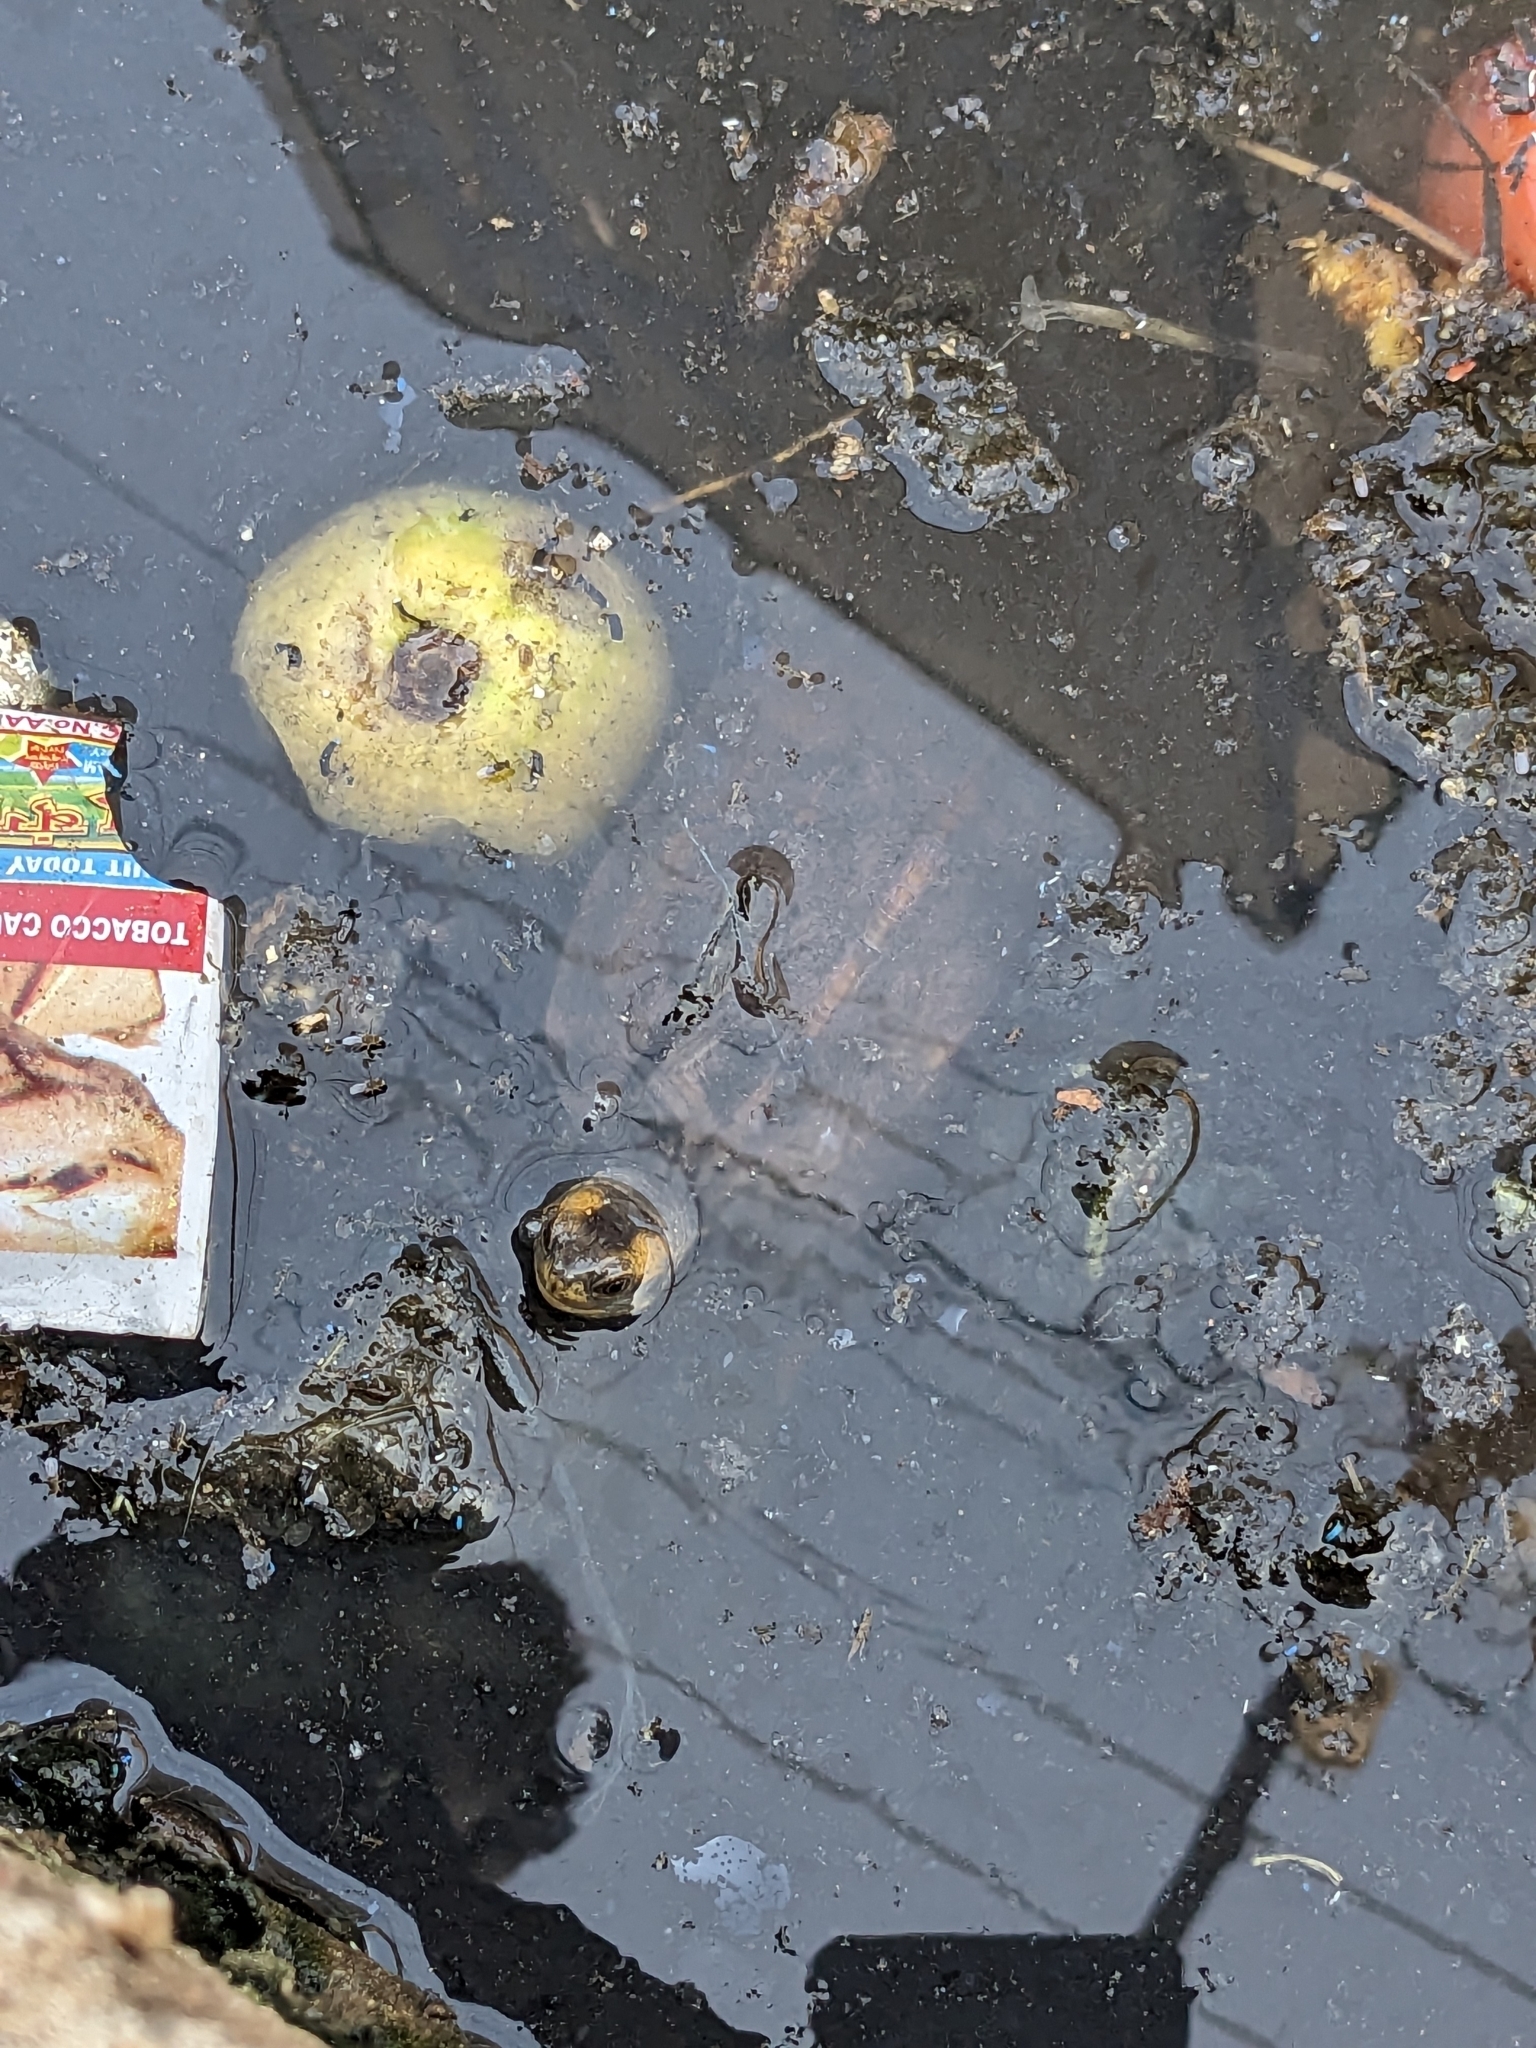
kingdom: Animalia
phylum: Chordata
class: Testudines
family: Geoemydidae
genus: Melanochelys
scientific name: Melanochelys trijuga
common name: Indian black turtle
